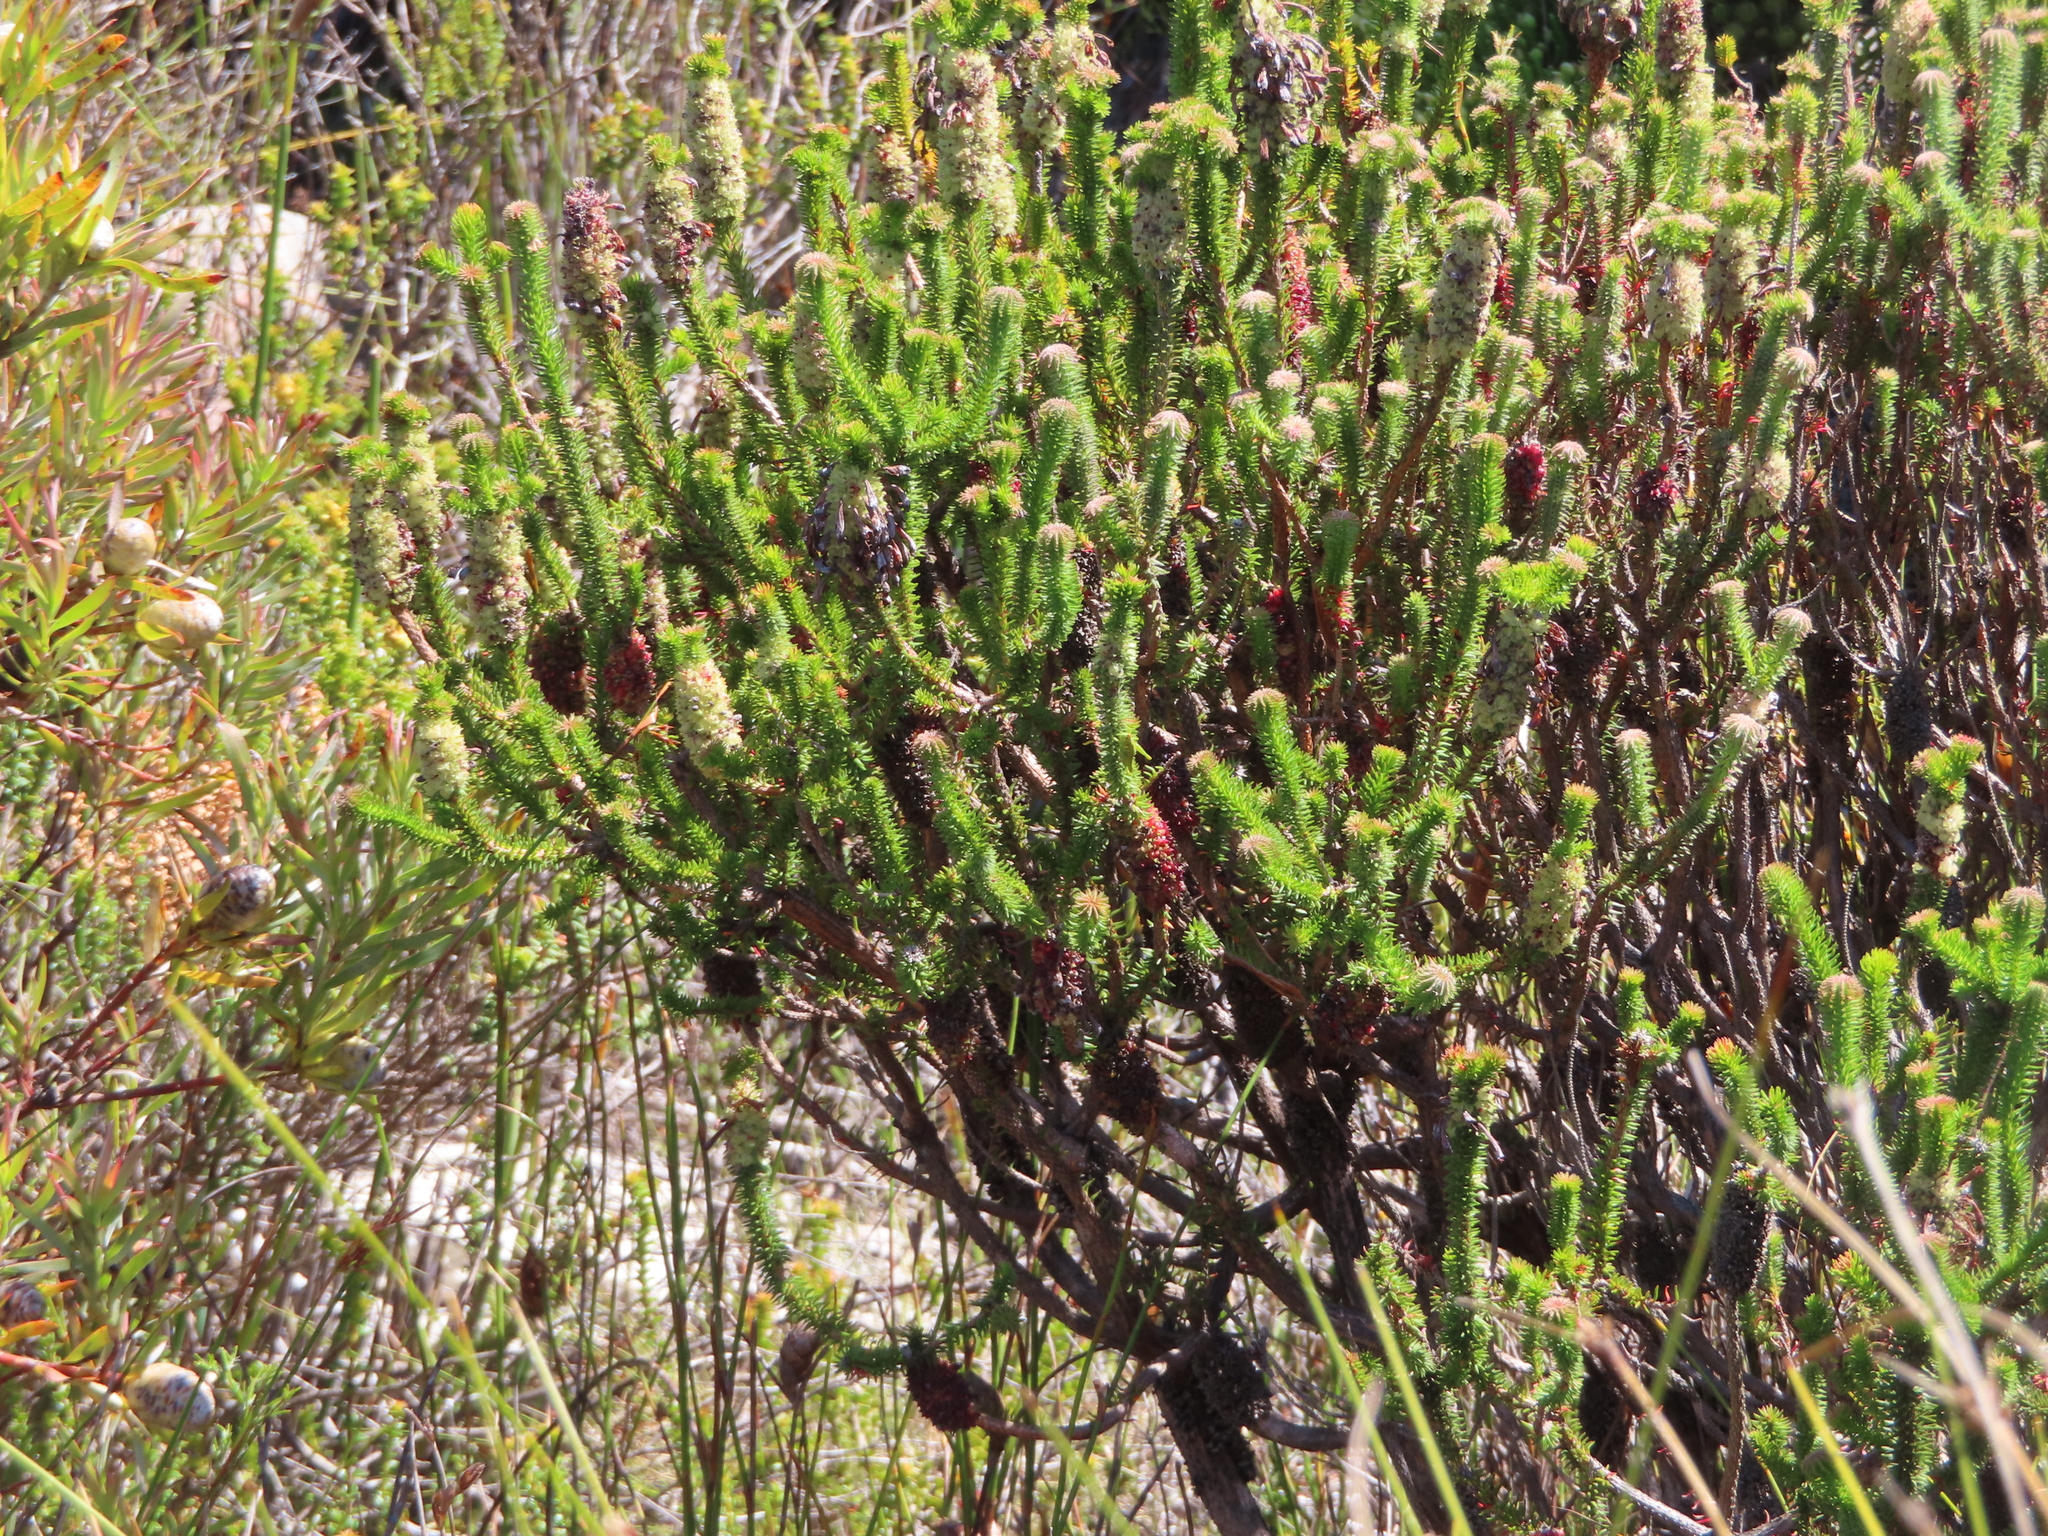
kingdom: Plantae
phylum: Tracheophyta
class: Magnoliopsida
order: Ericales
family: Ericaceae
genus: Erica
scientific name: Erica sessiliflora
